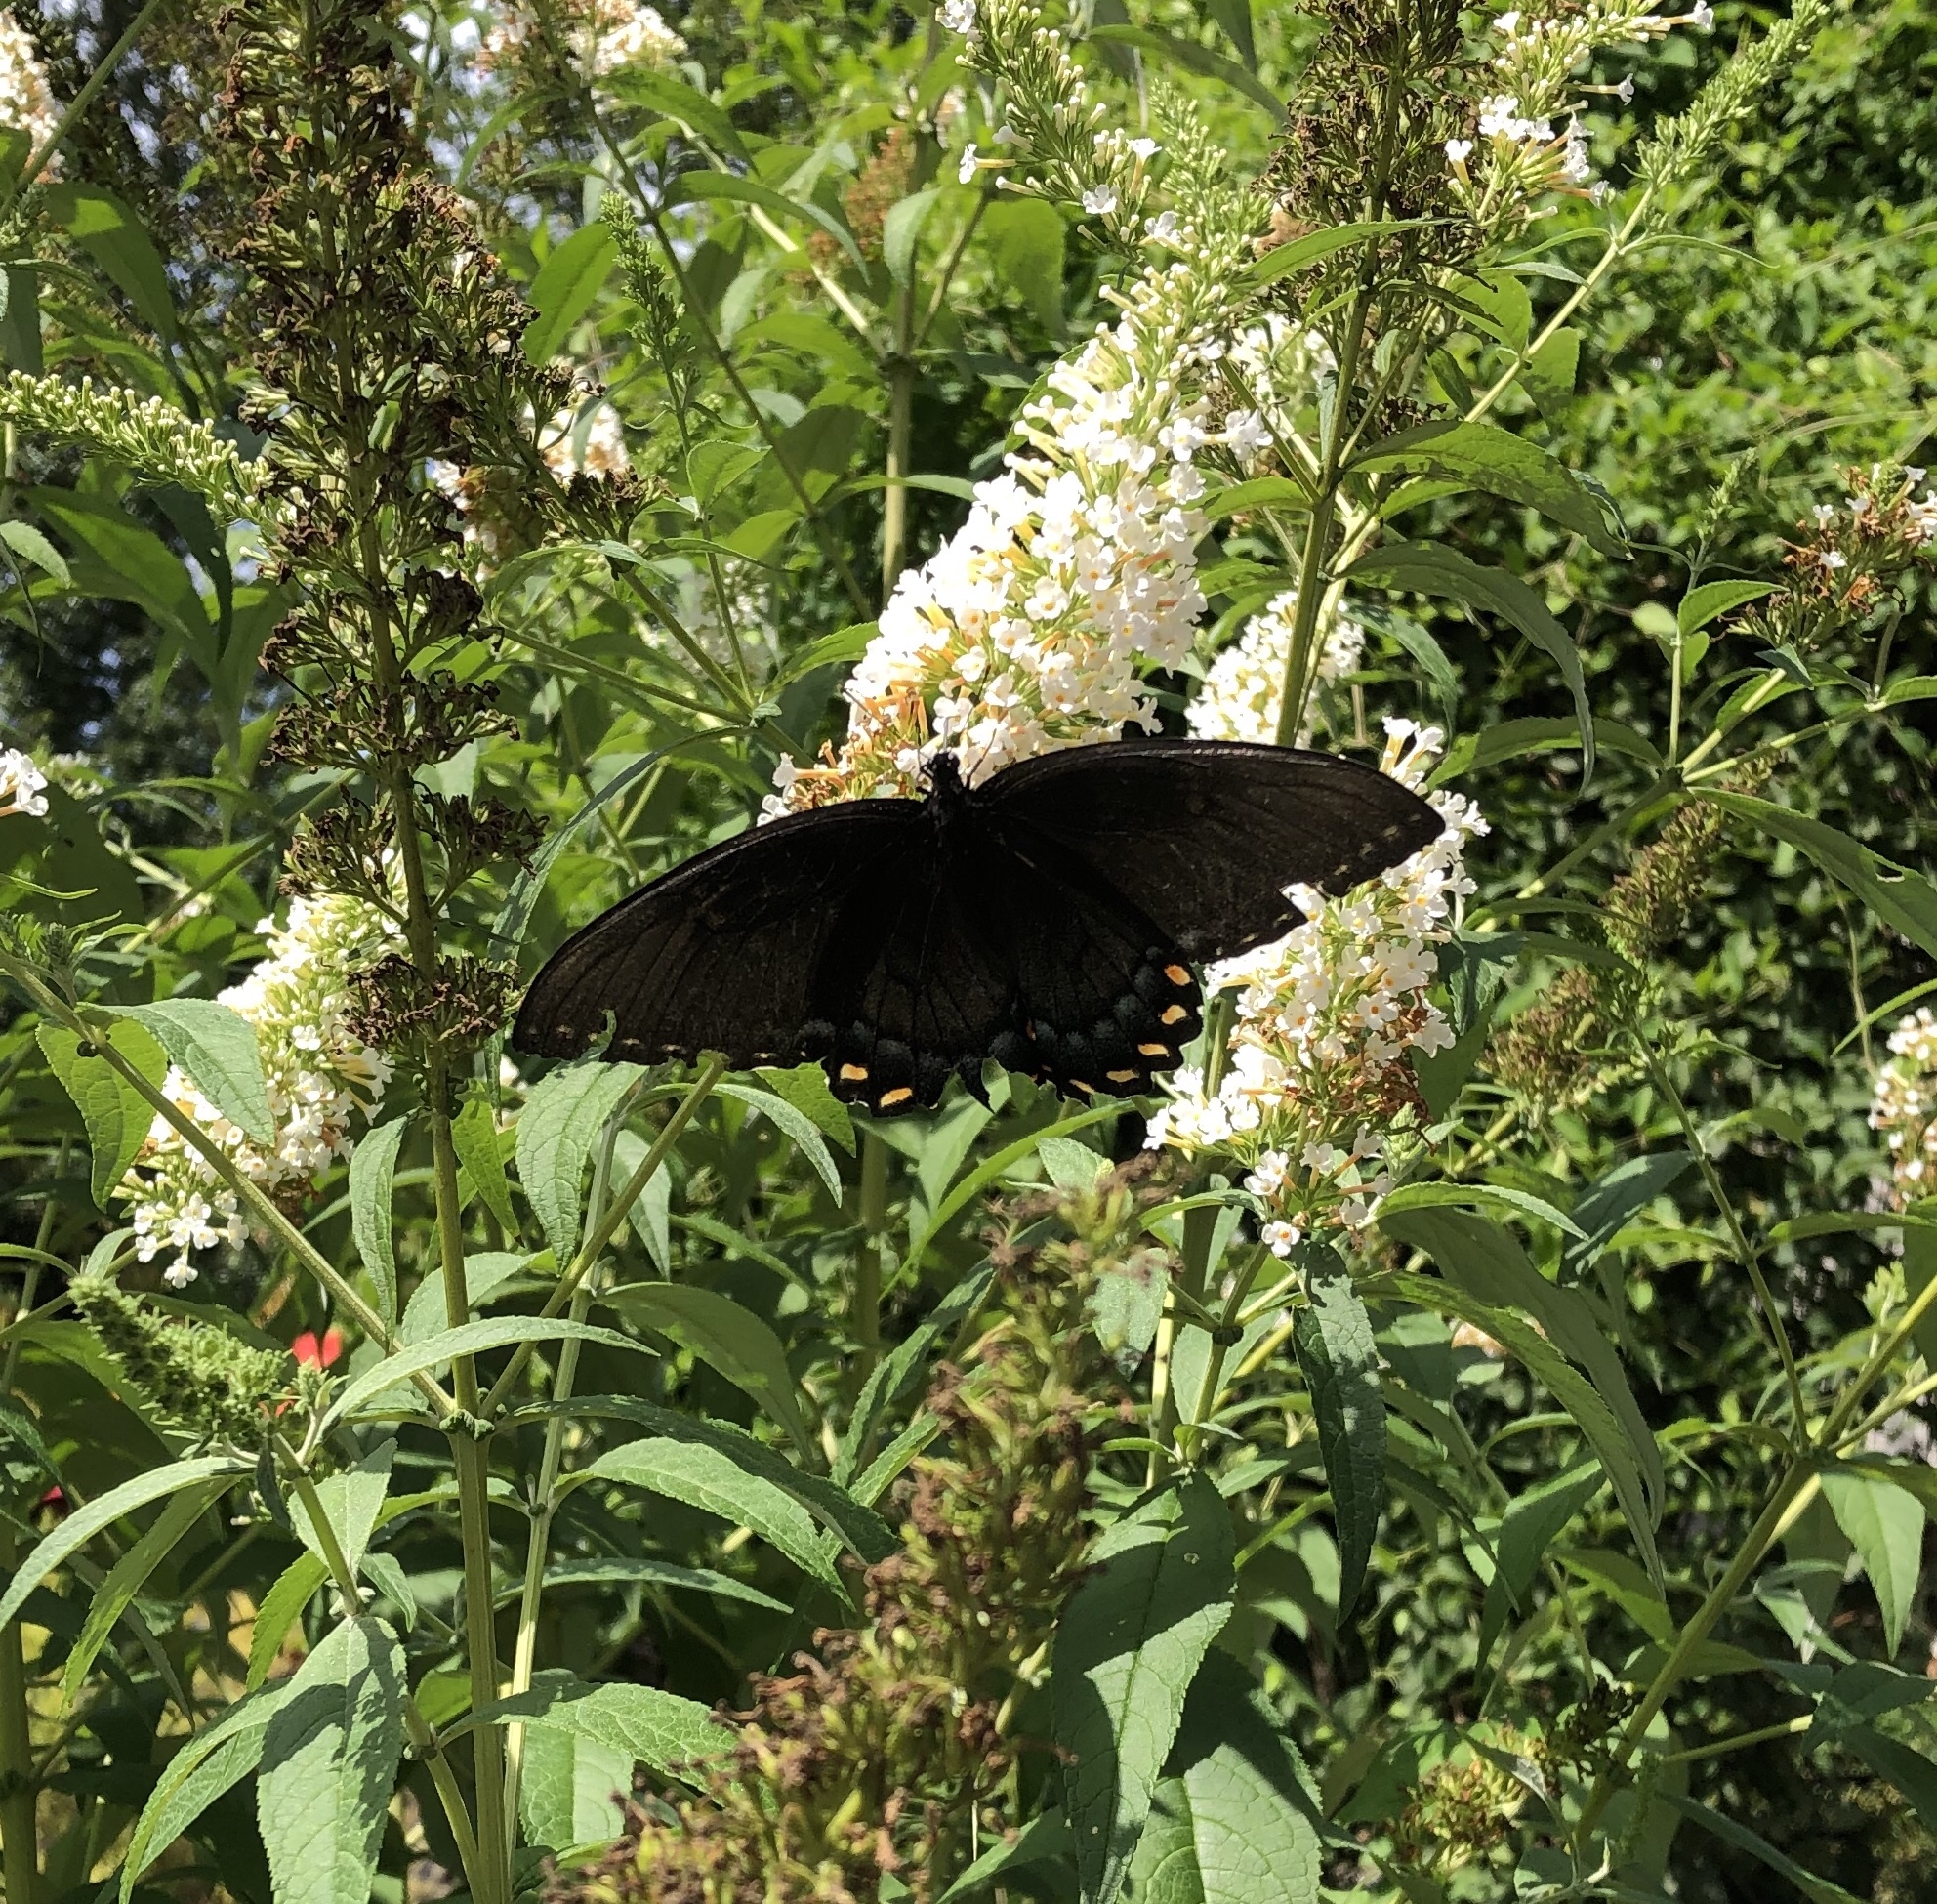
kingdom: Animalia
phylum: Arthropoda
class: Insecta
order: Lepidoptera
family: Papilionidae
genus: Papilio
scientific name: Papilio glaucus
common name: Tiger swallowtail
